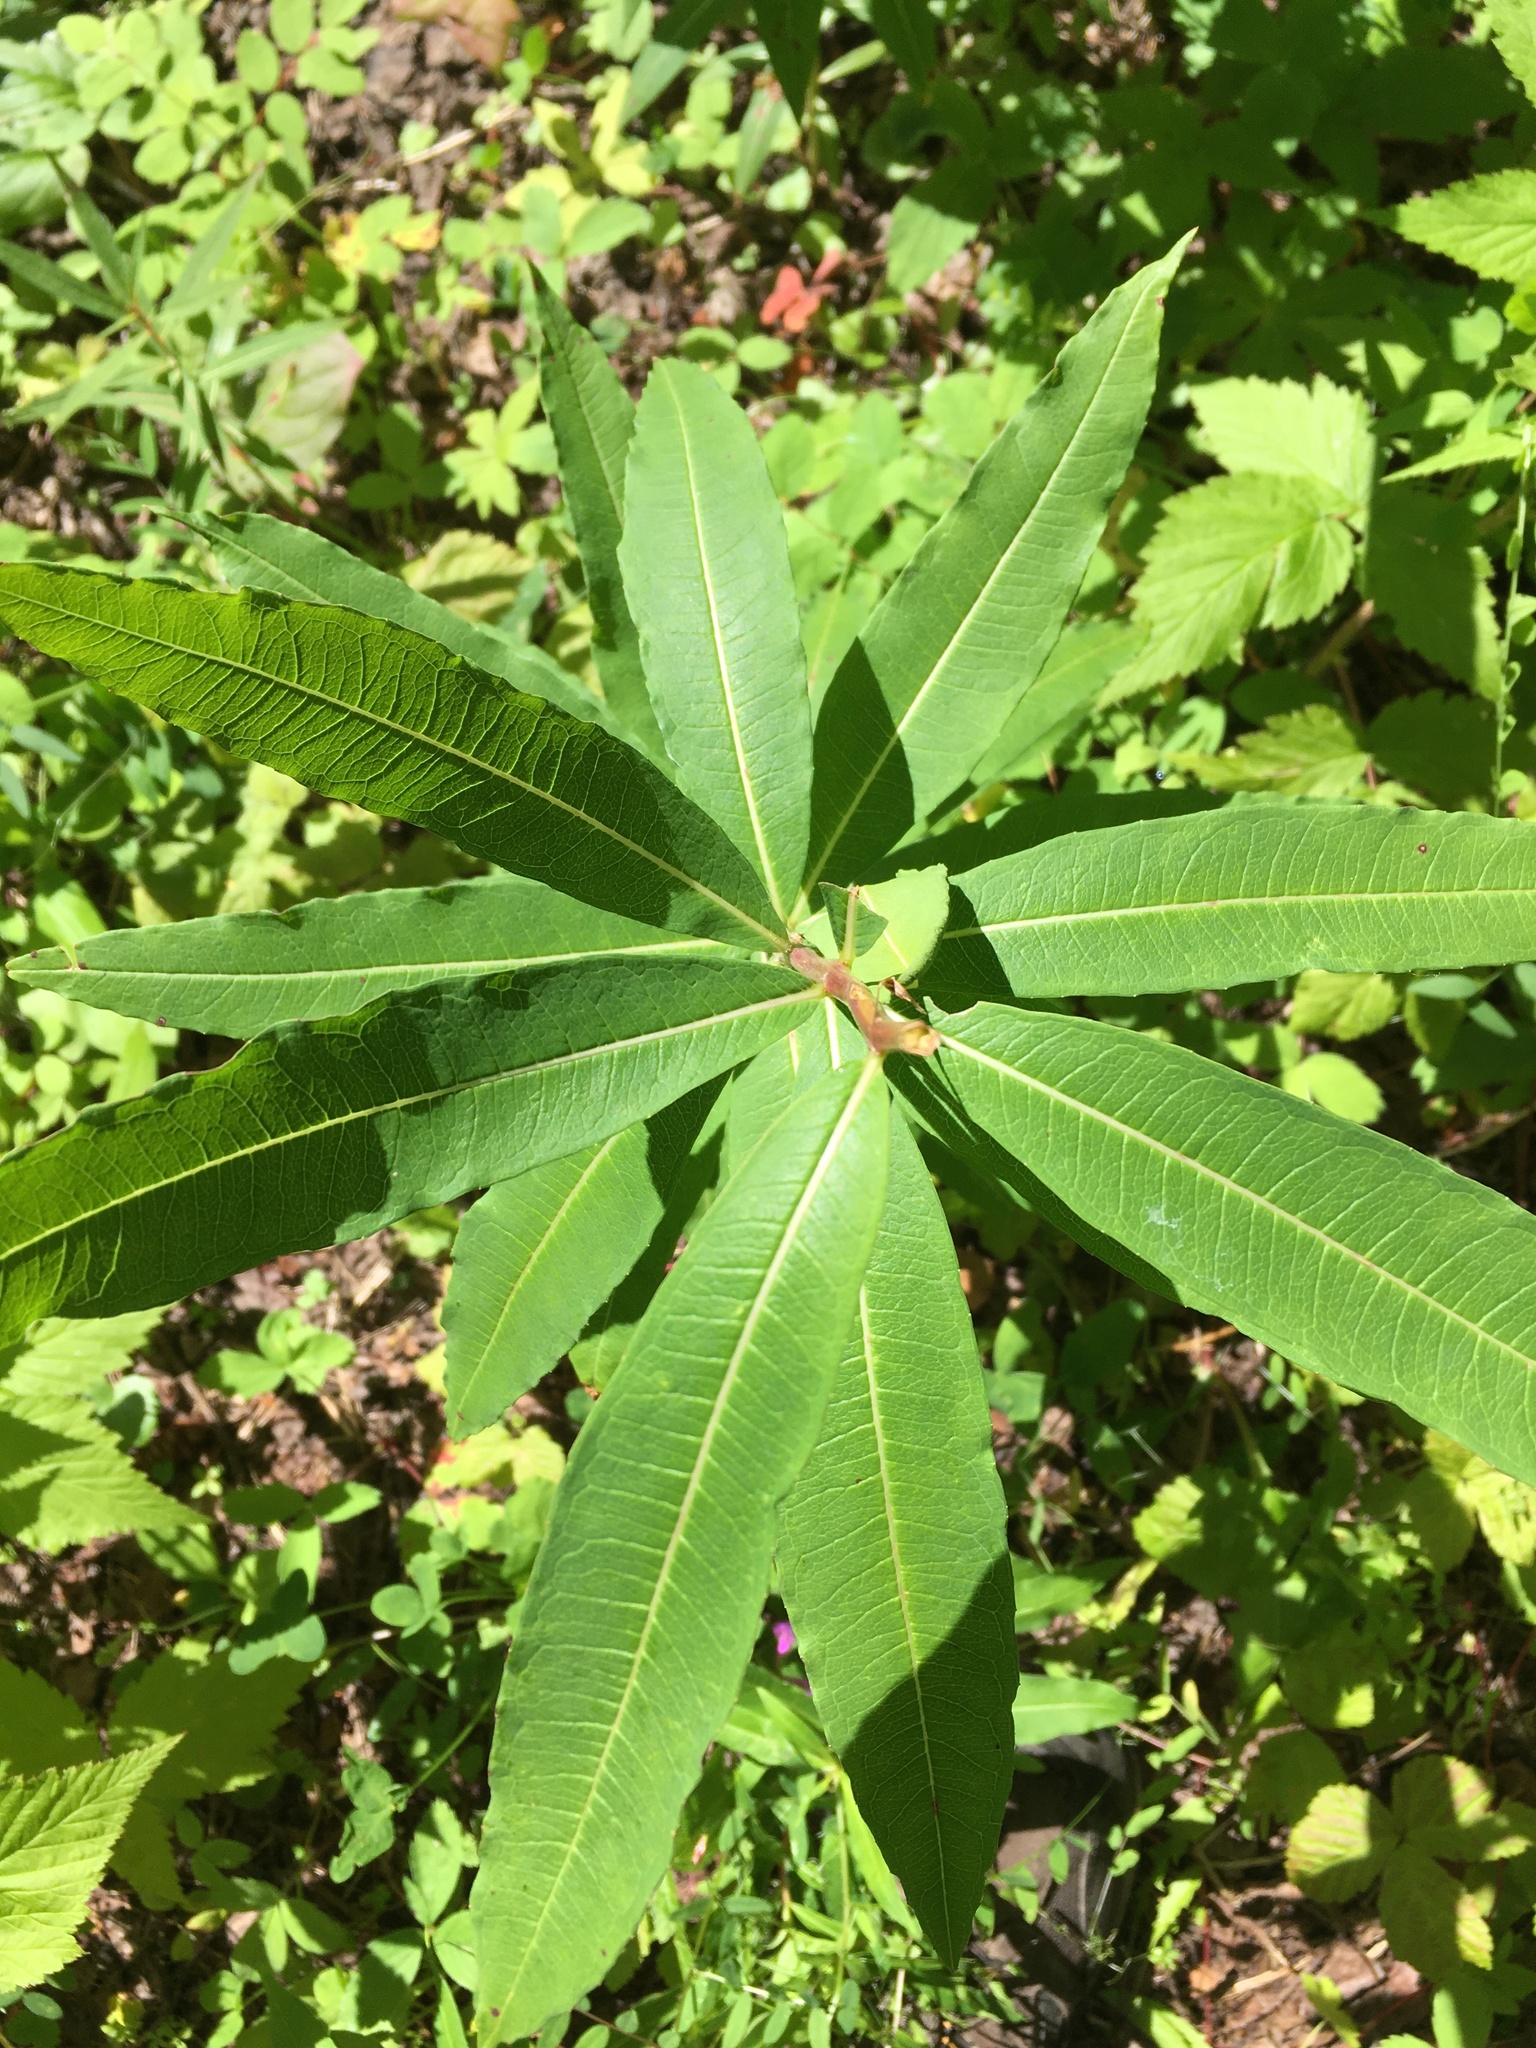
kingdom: Plantae
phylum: Tracheophyta
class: Magnoliopsida
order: Myrtales
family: Onagraceae
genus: Chamaenerion
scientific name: Chamaenerion angustifolium
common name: Fireweed
